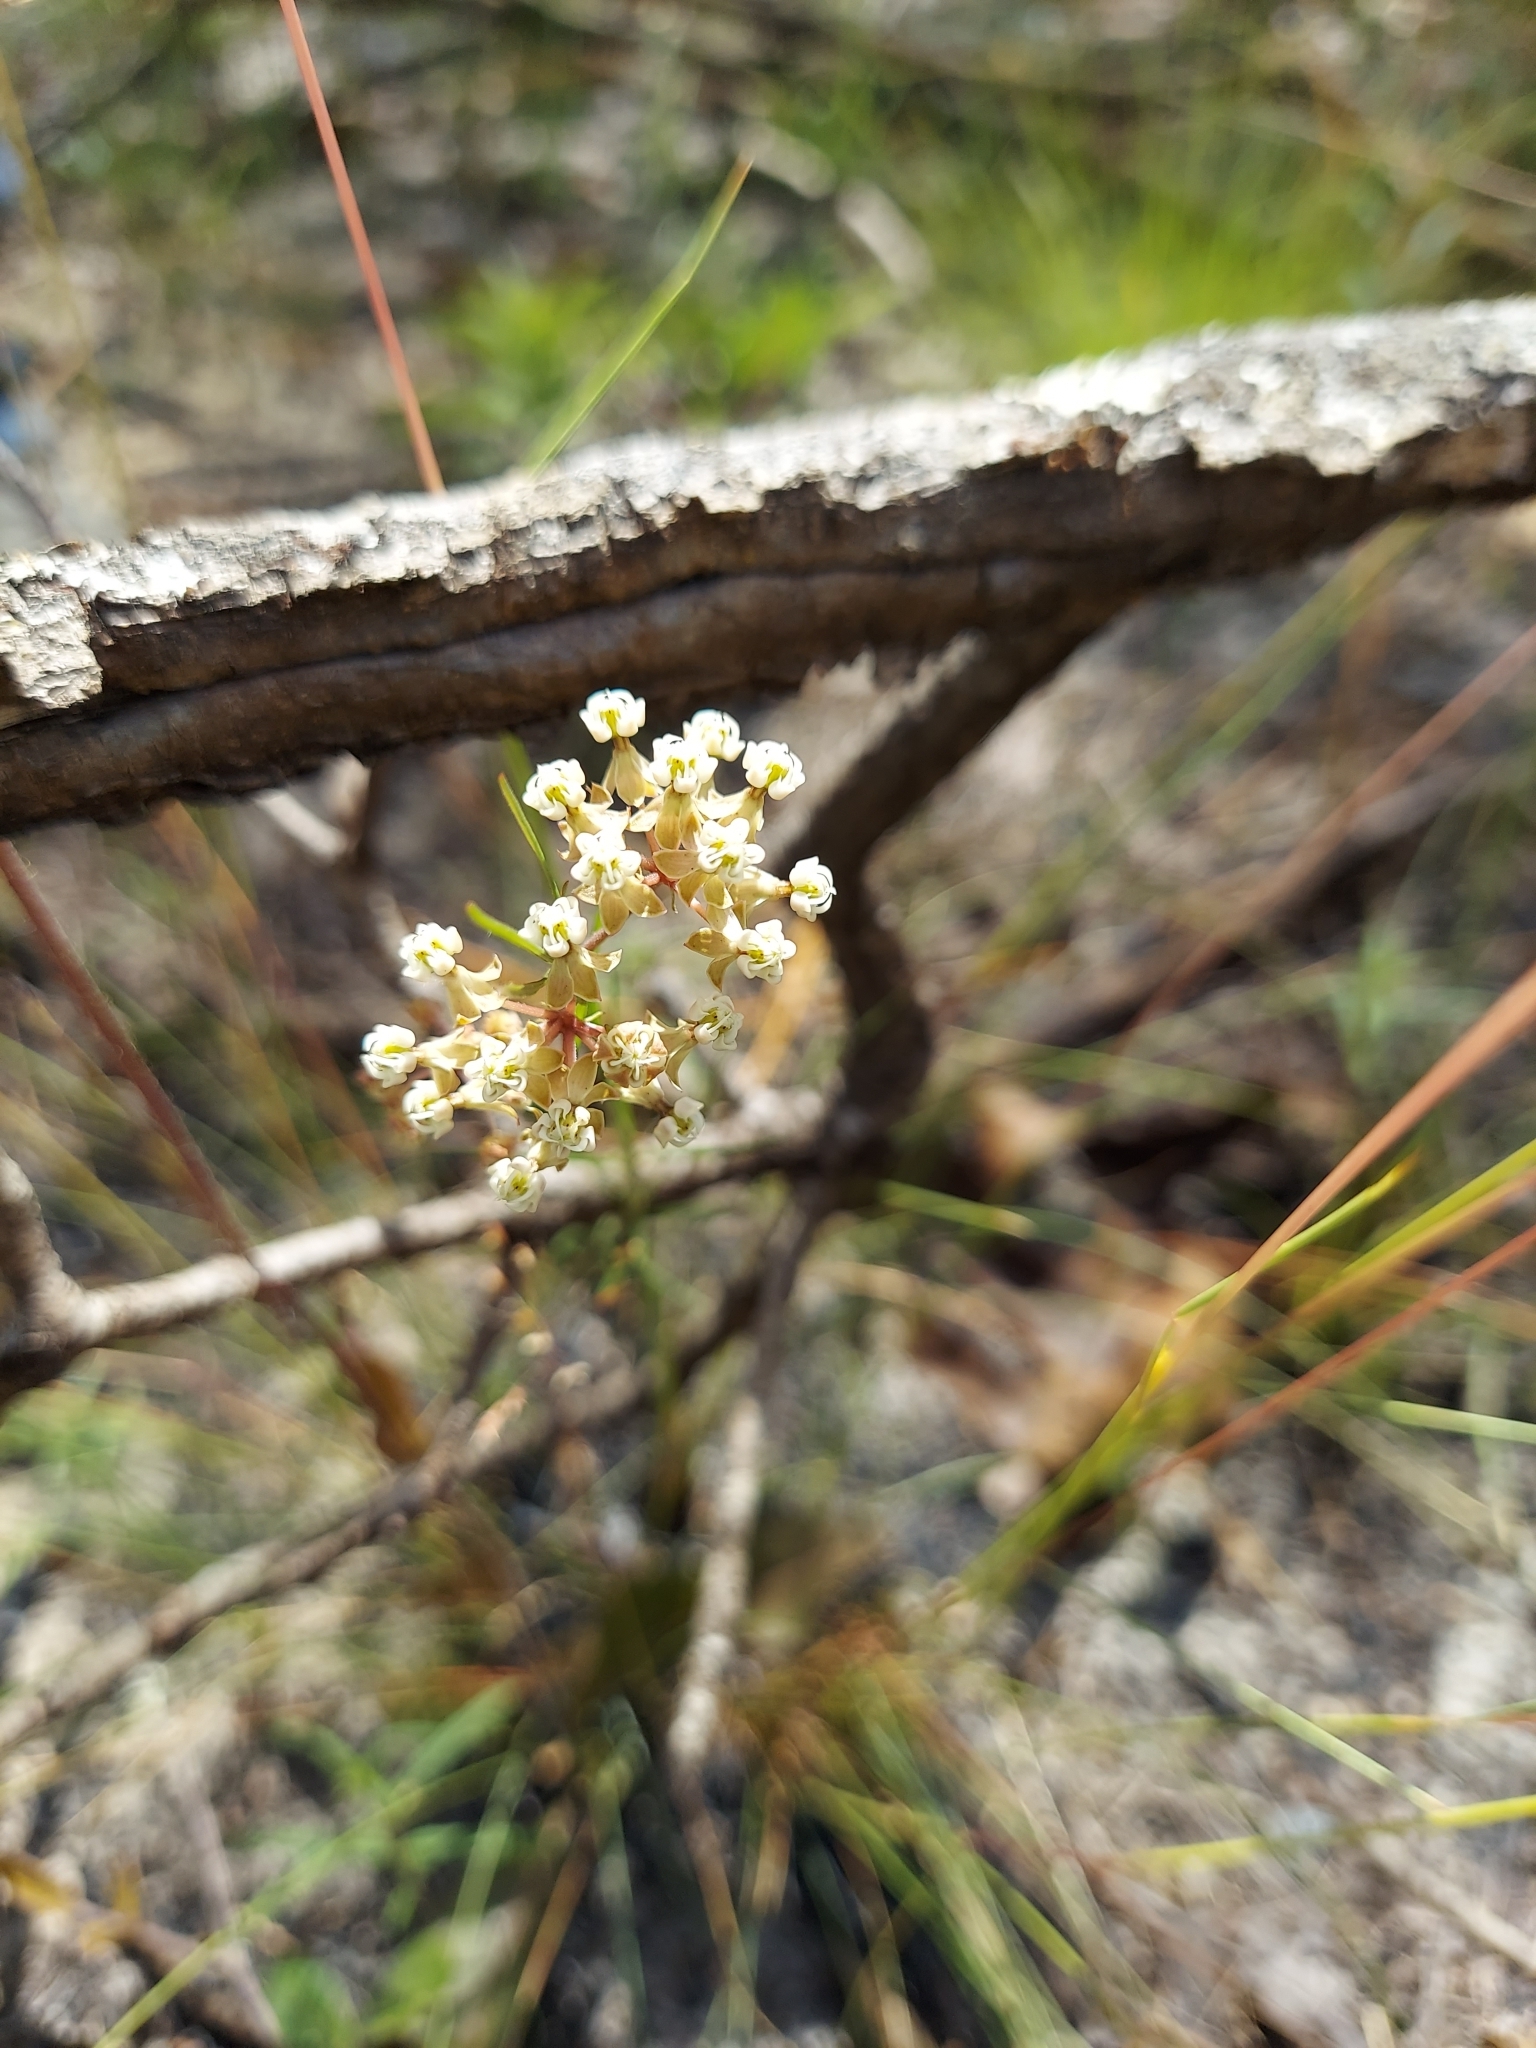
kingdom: Plantae
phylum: Tracheophyta
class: Magnoliopsida
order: Gentianales
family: Apocynaceae
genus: Asclepias
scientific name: Asclepias verticillata
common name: Eastern whorled milkweed
